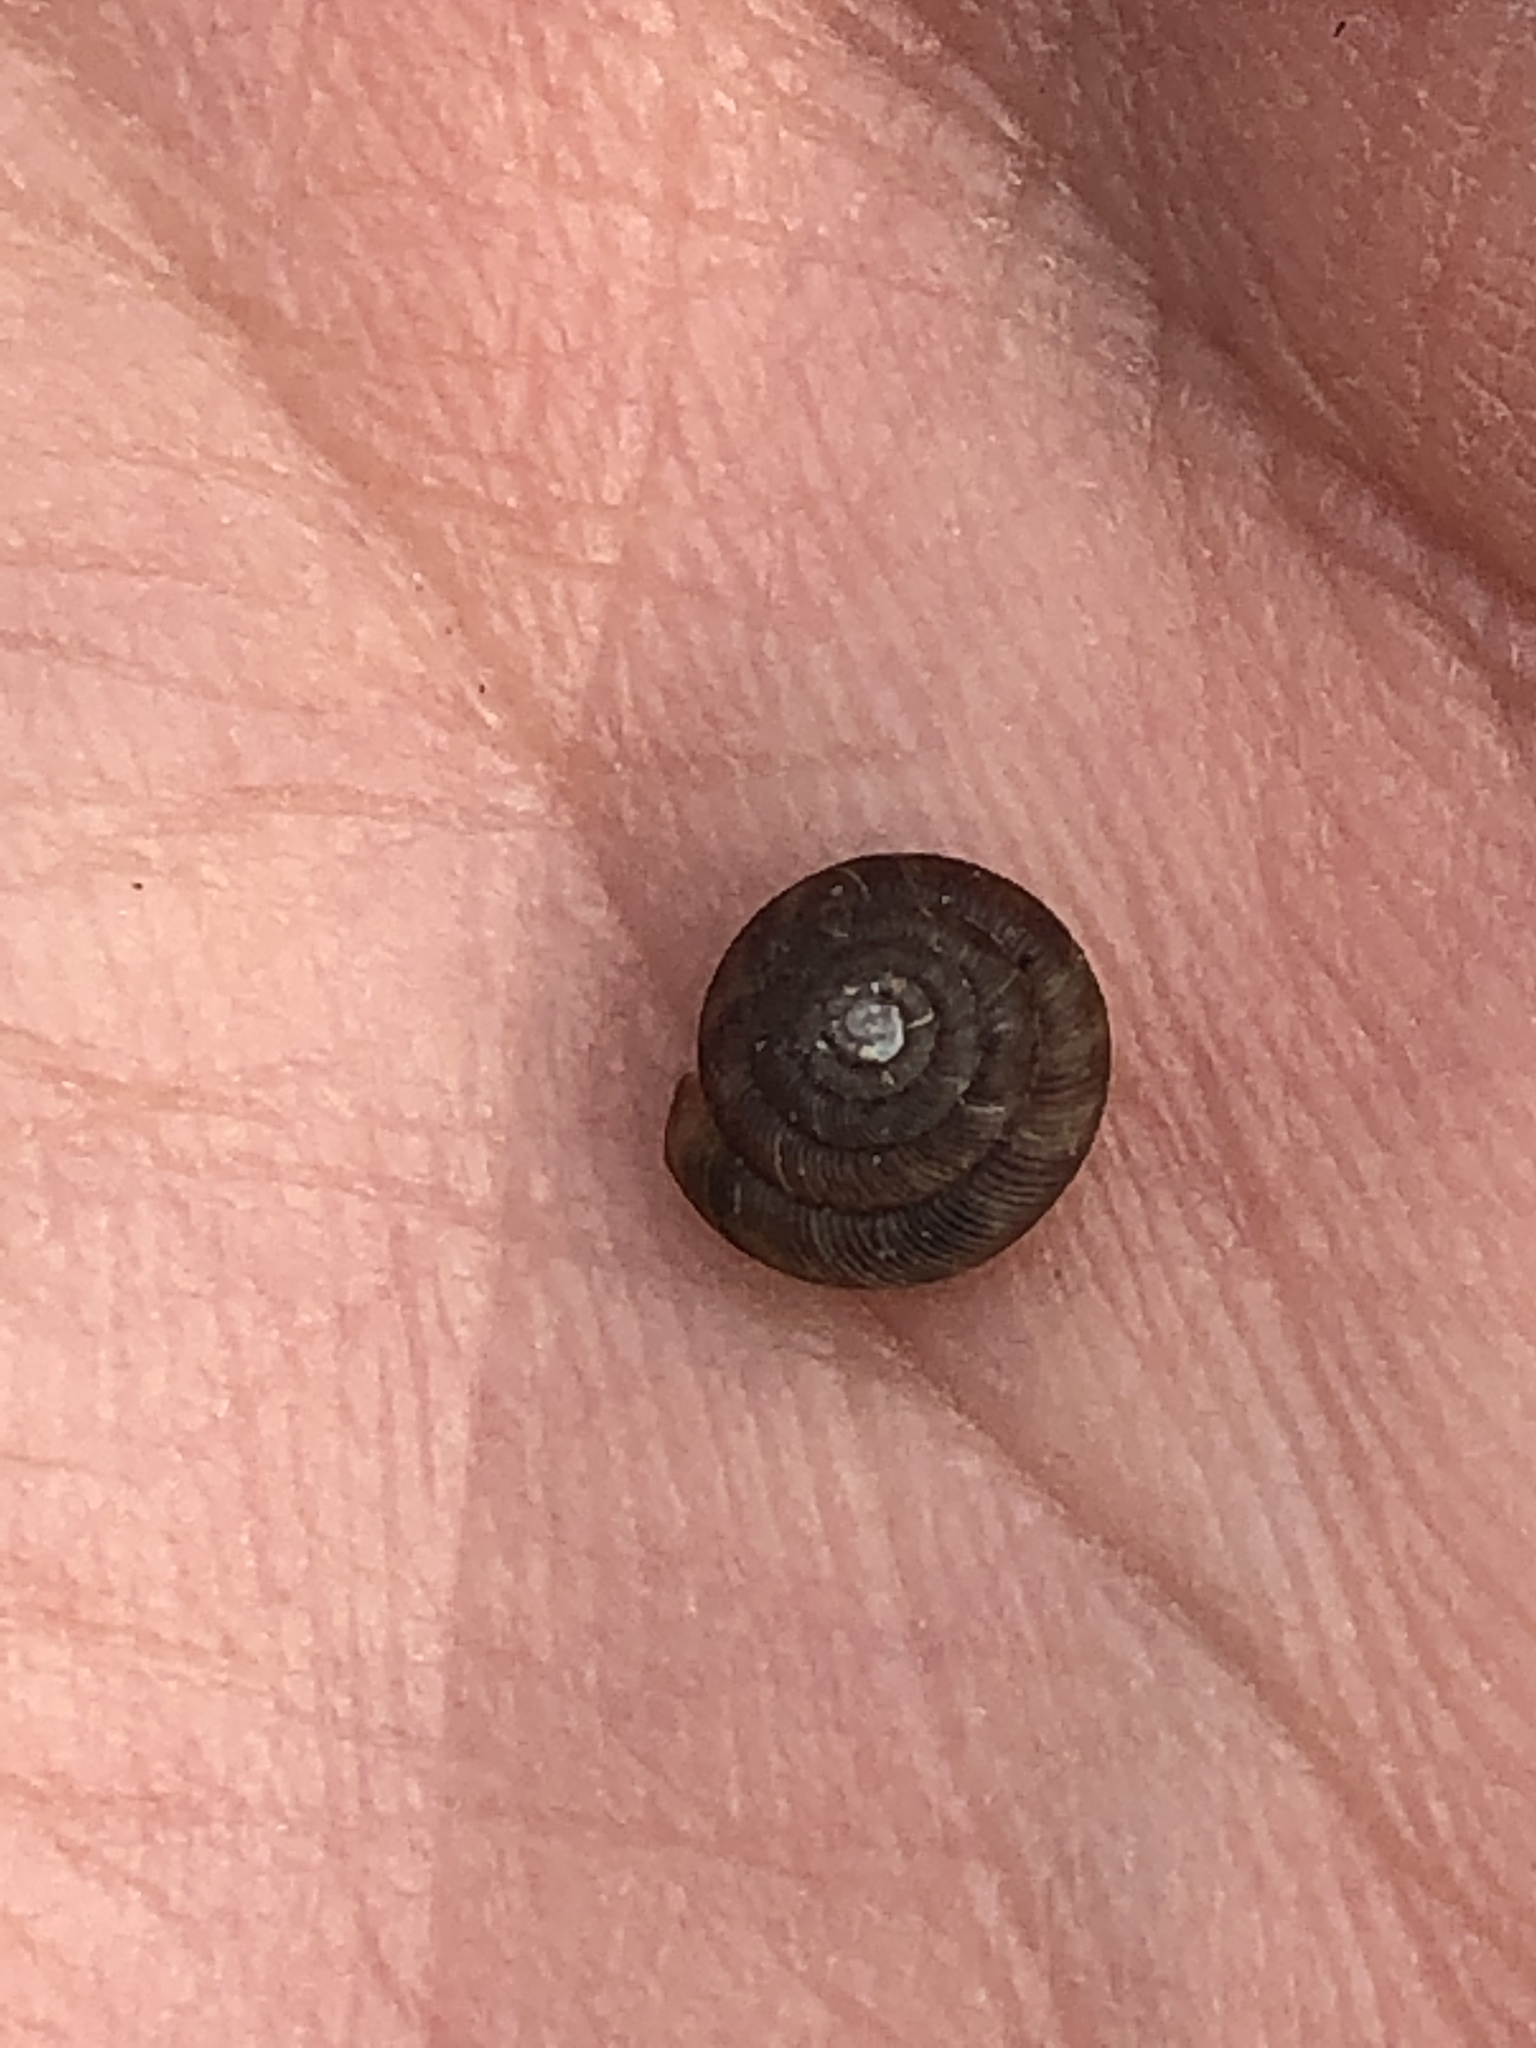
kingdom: Animalia
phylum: Mollusca
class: Gastropoda
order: Stylommatophora
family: Discidae
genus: Discus
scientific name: Discus rotundatus
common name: Rounded snail
